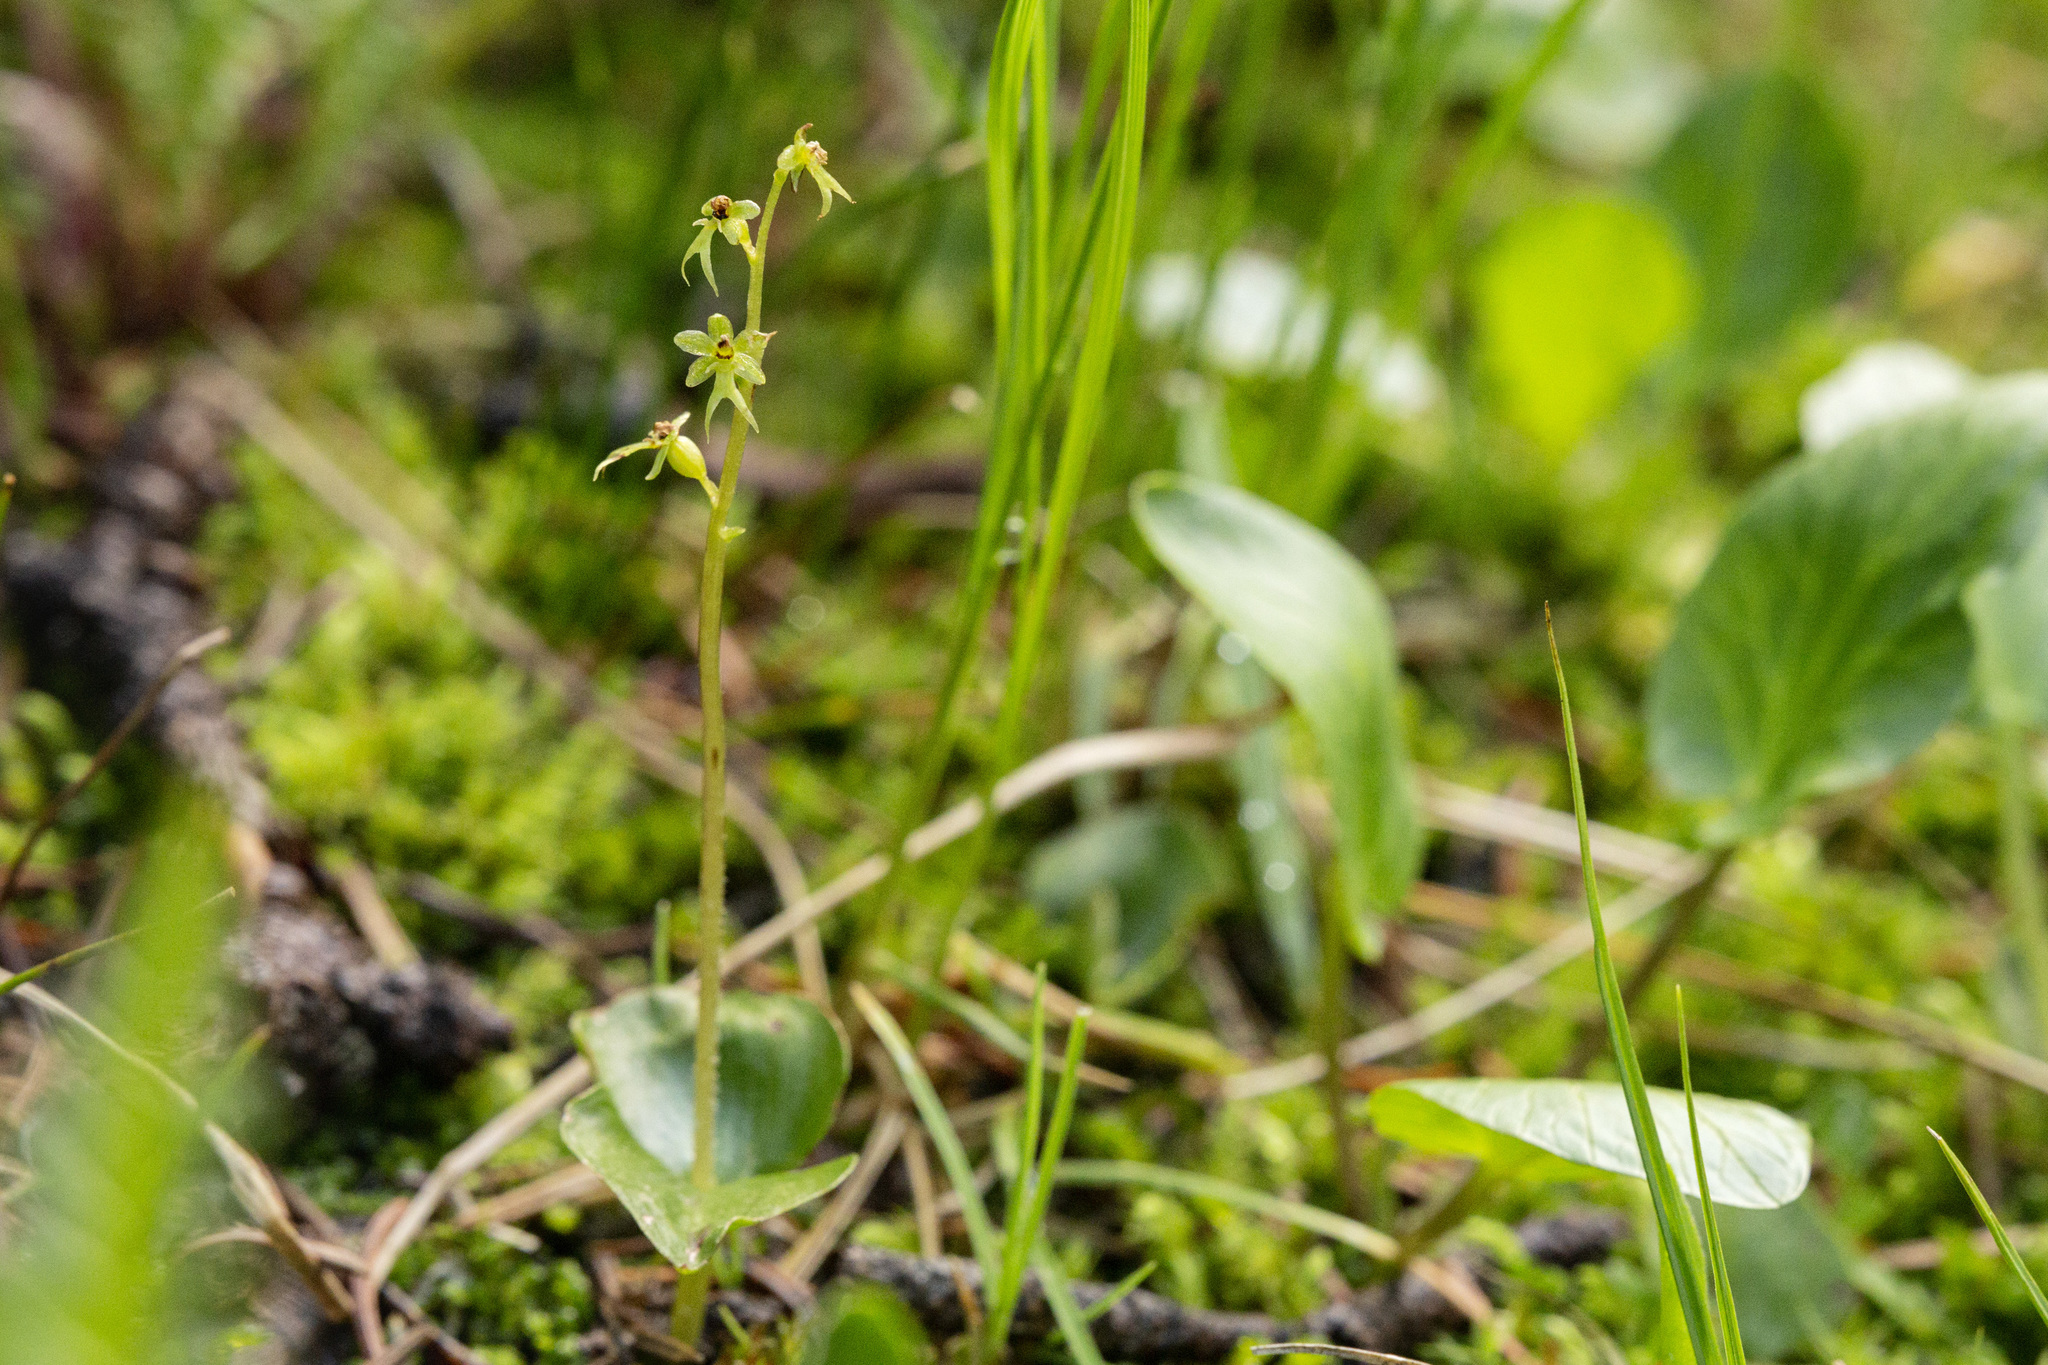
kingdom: Plantae
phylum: Tracheophyta
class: Liliopsida
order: Asparagales
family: Orchidaceae
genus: Neottia
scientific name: Neottia cordata
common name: Lesser twayblade
